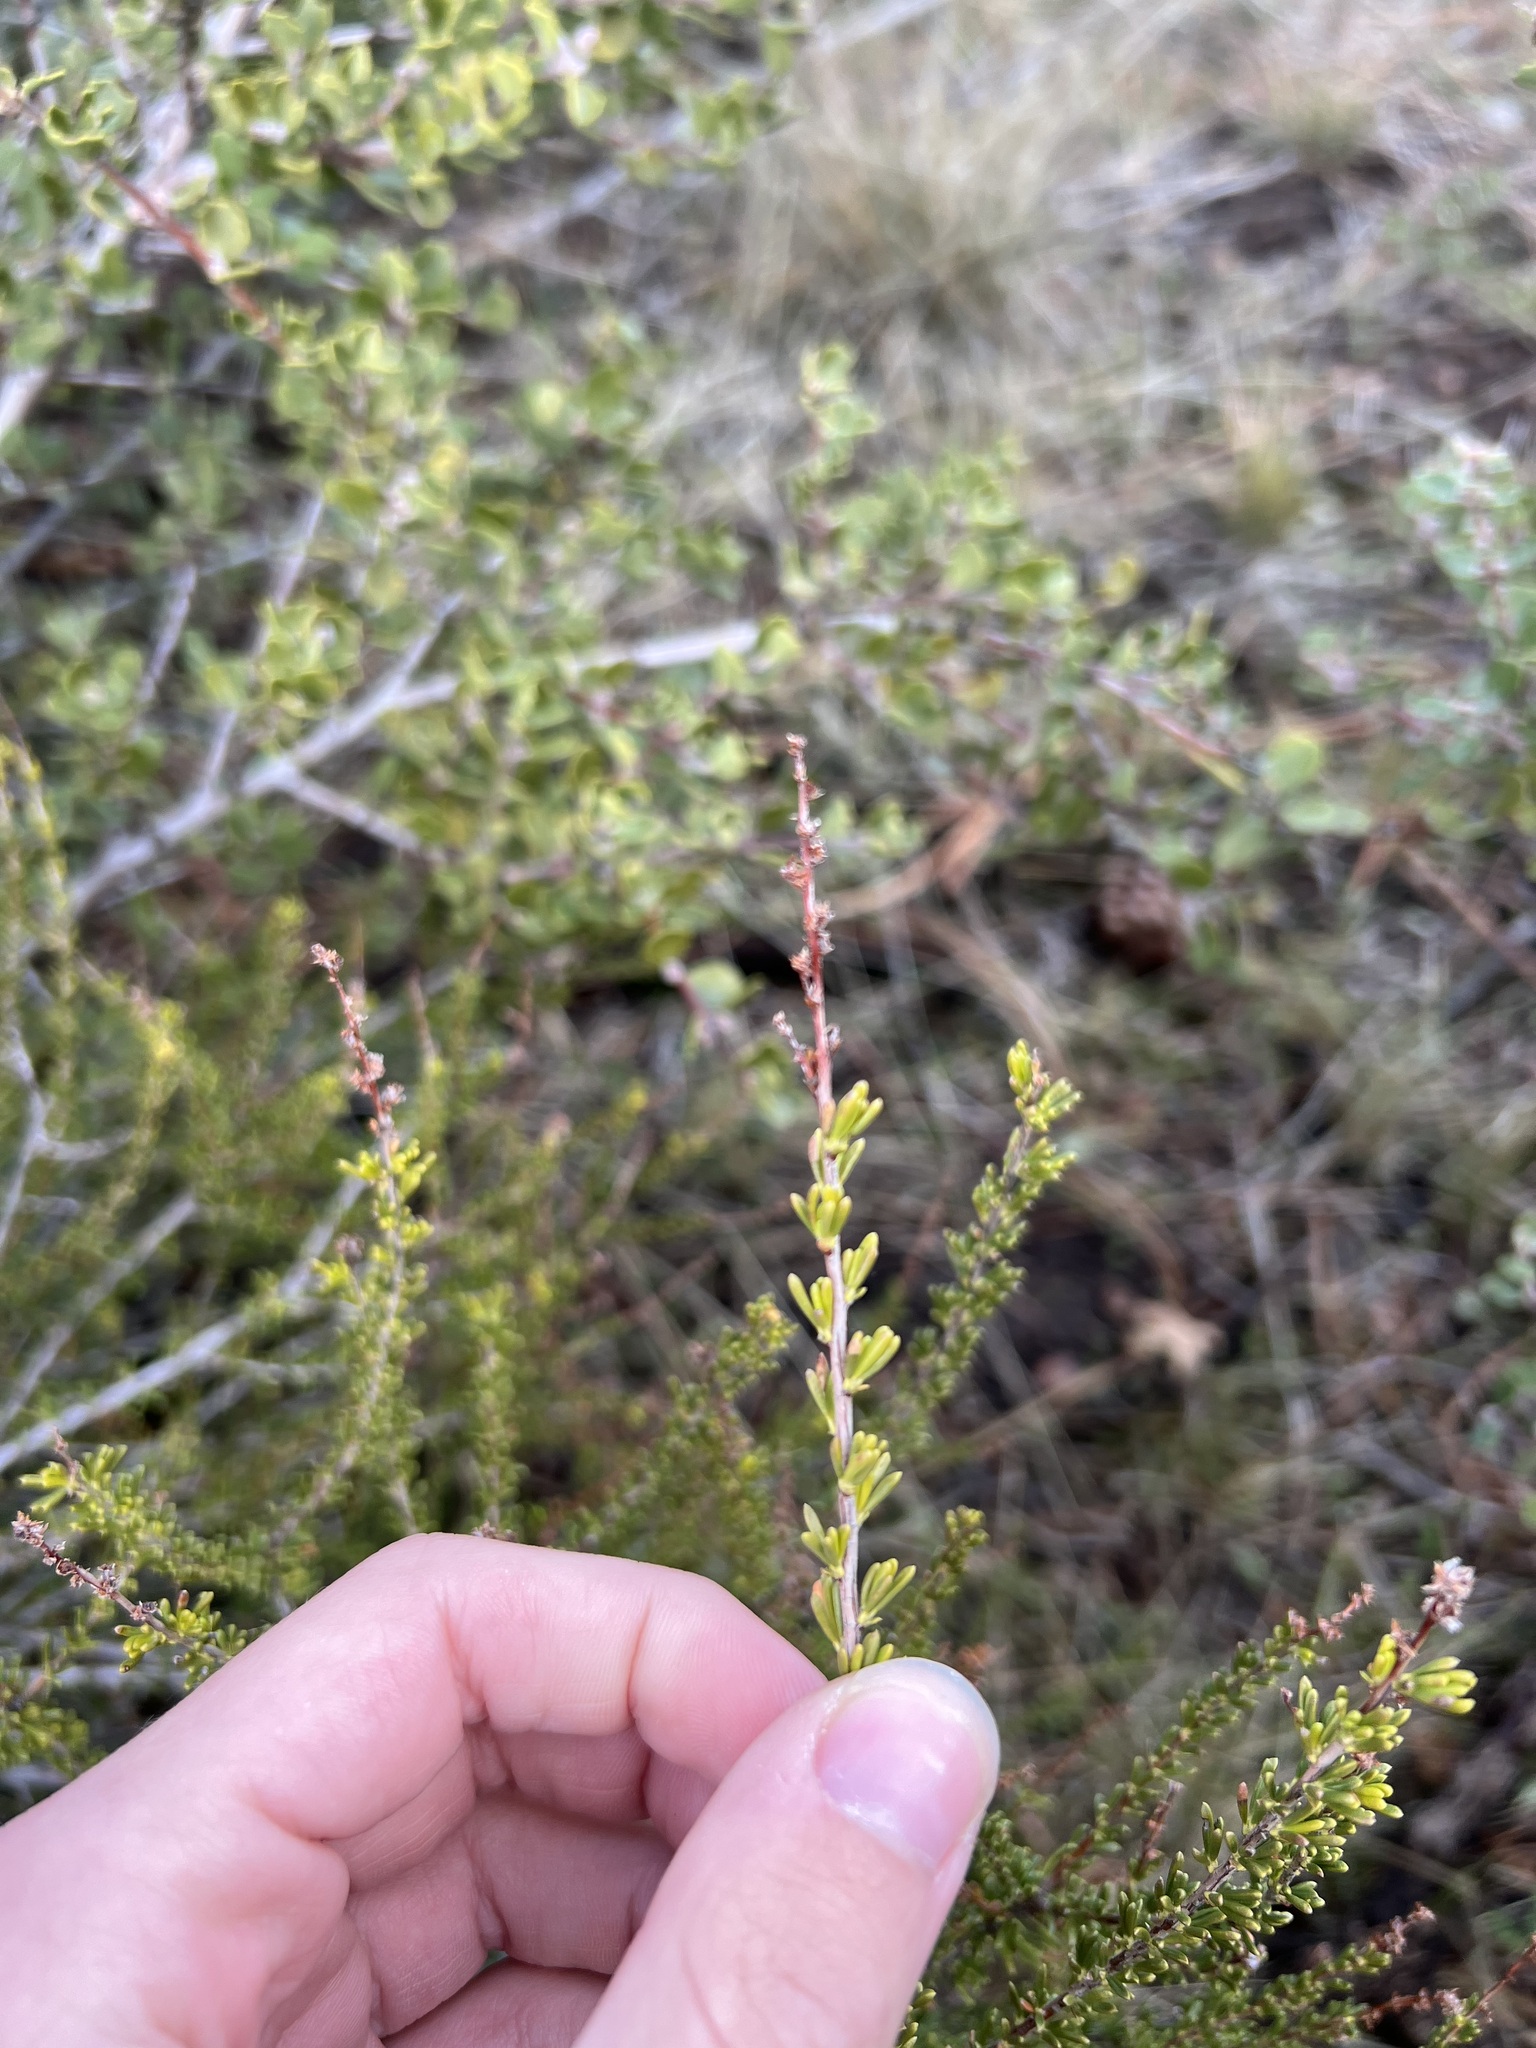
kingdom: Plantae
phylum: Tracheophyta
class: Magnoliopsida
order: Rosales
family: Rosaceae
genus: Adenostoma
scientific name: Adenostoma fasciculatum
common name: Chamise
